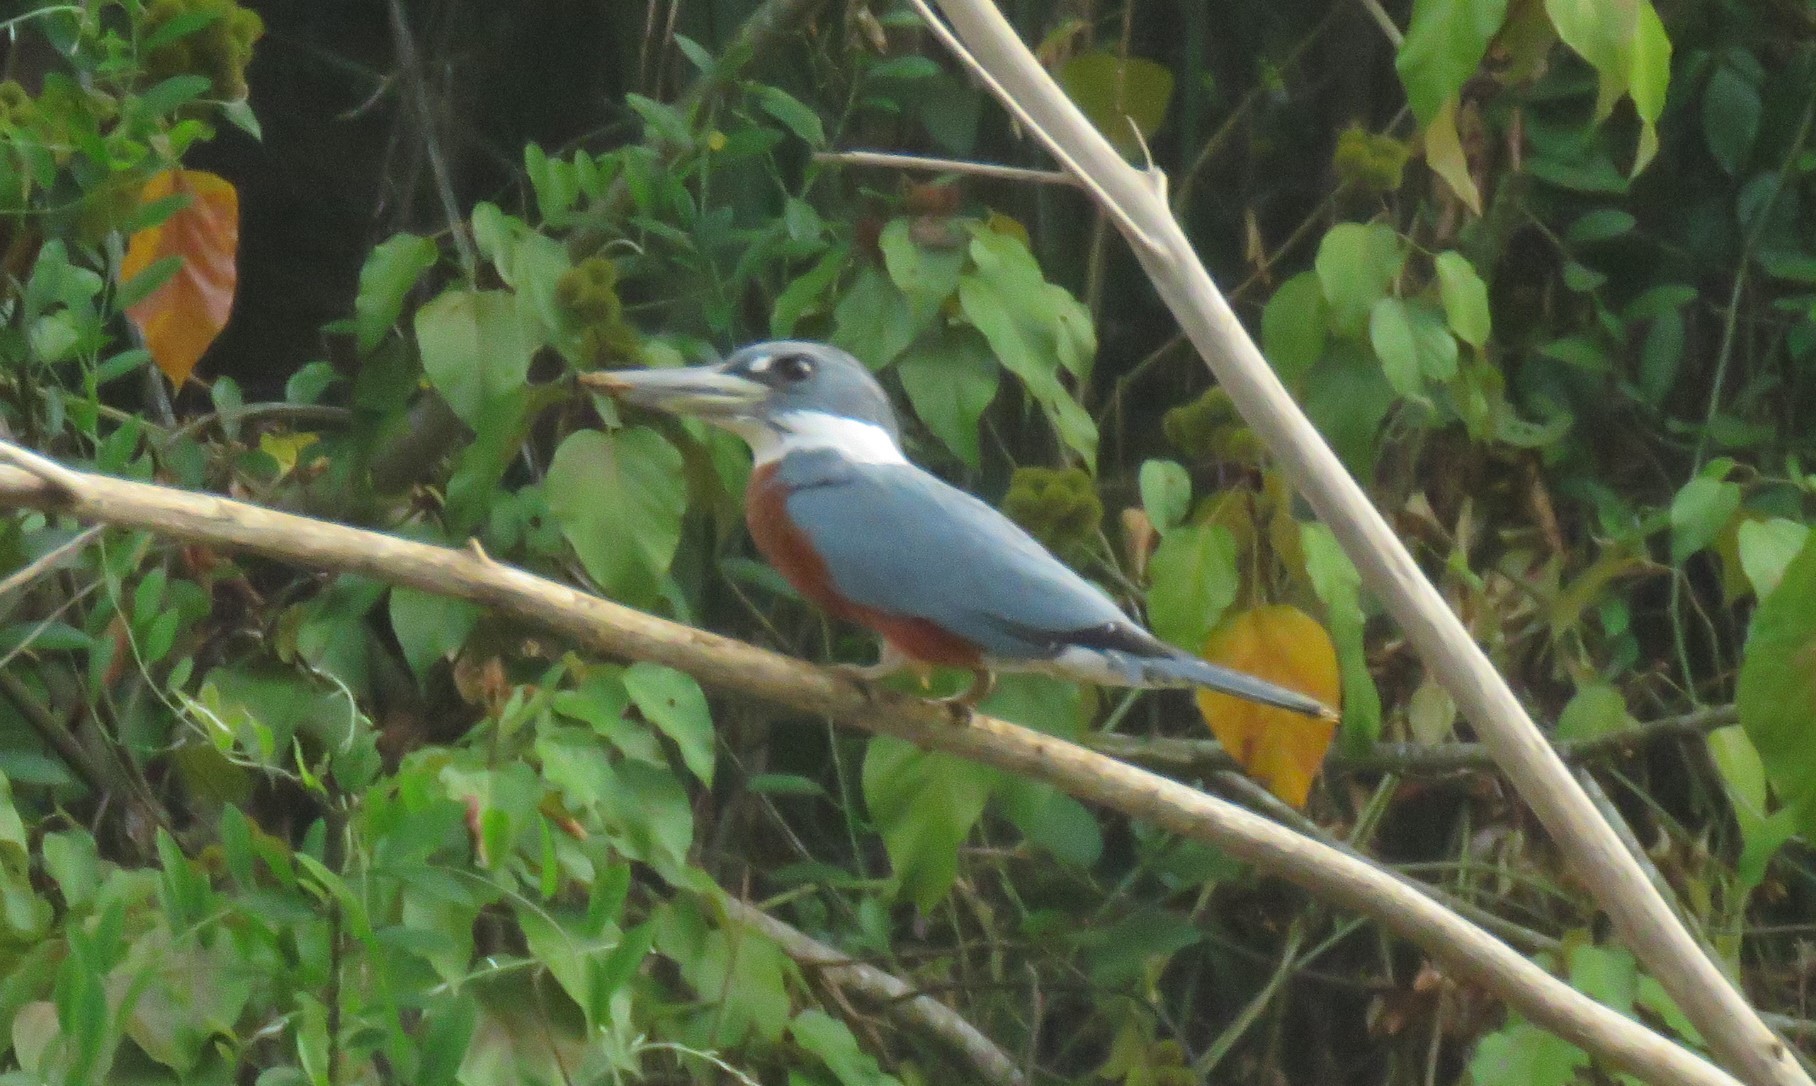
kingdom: Animalia
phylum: Chordata
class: Aves
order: Coraciiformes
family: Alcedinidae
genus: Megaceryle
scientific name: Megaceryle torquata
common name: Ringed kingfisher
